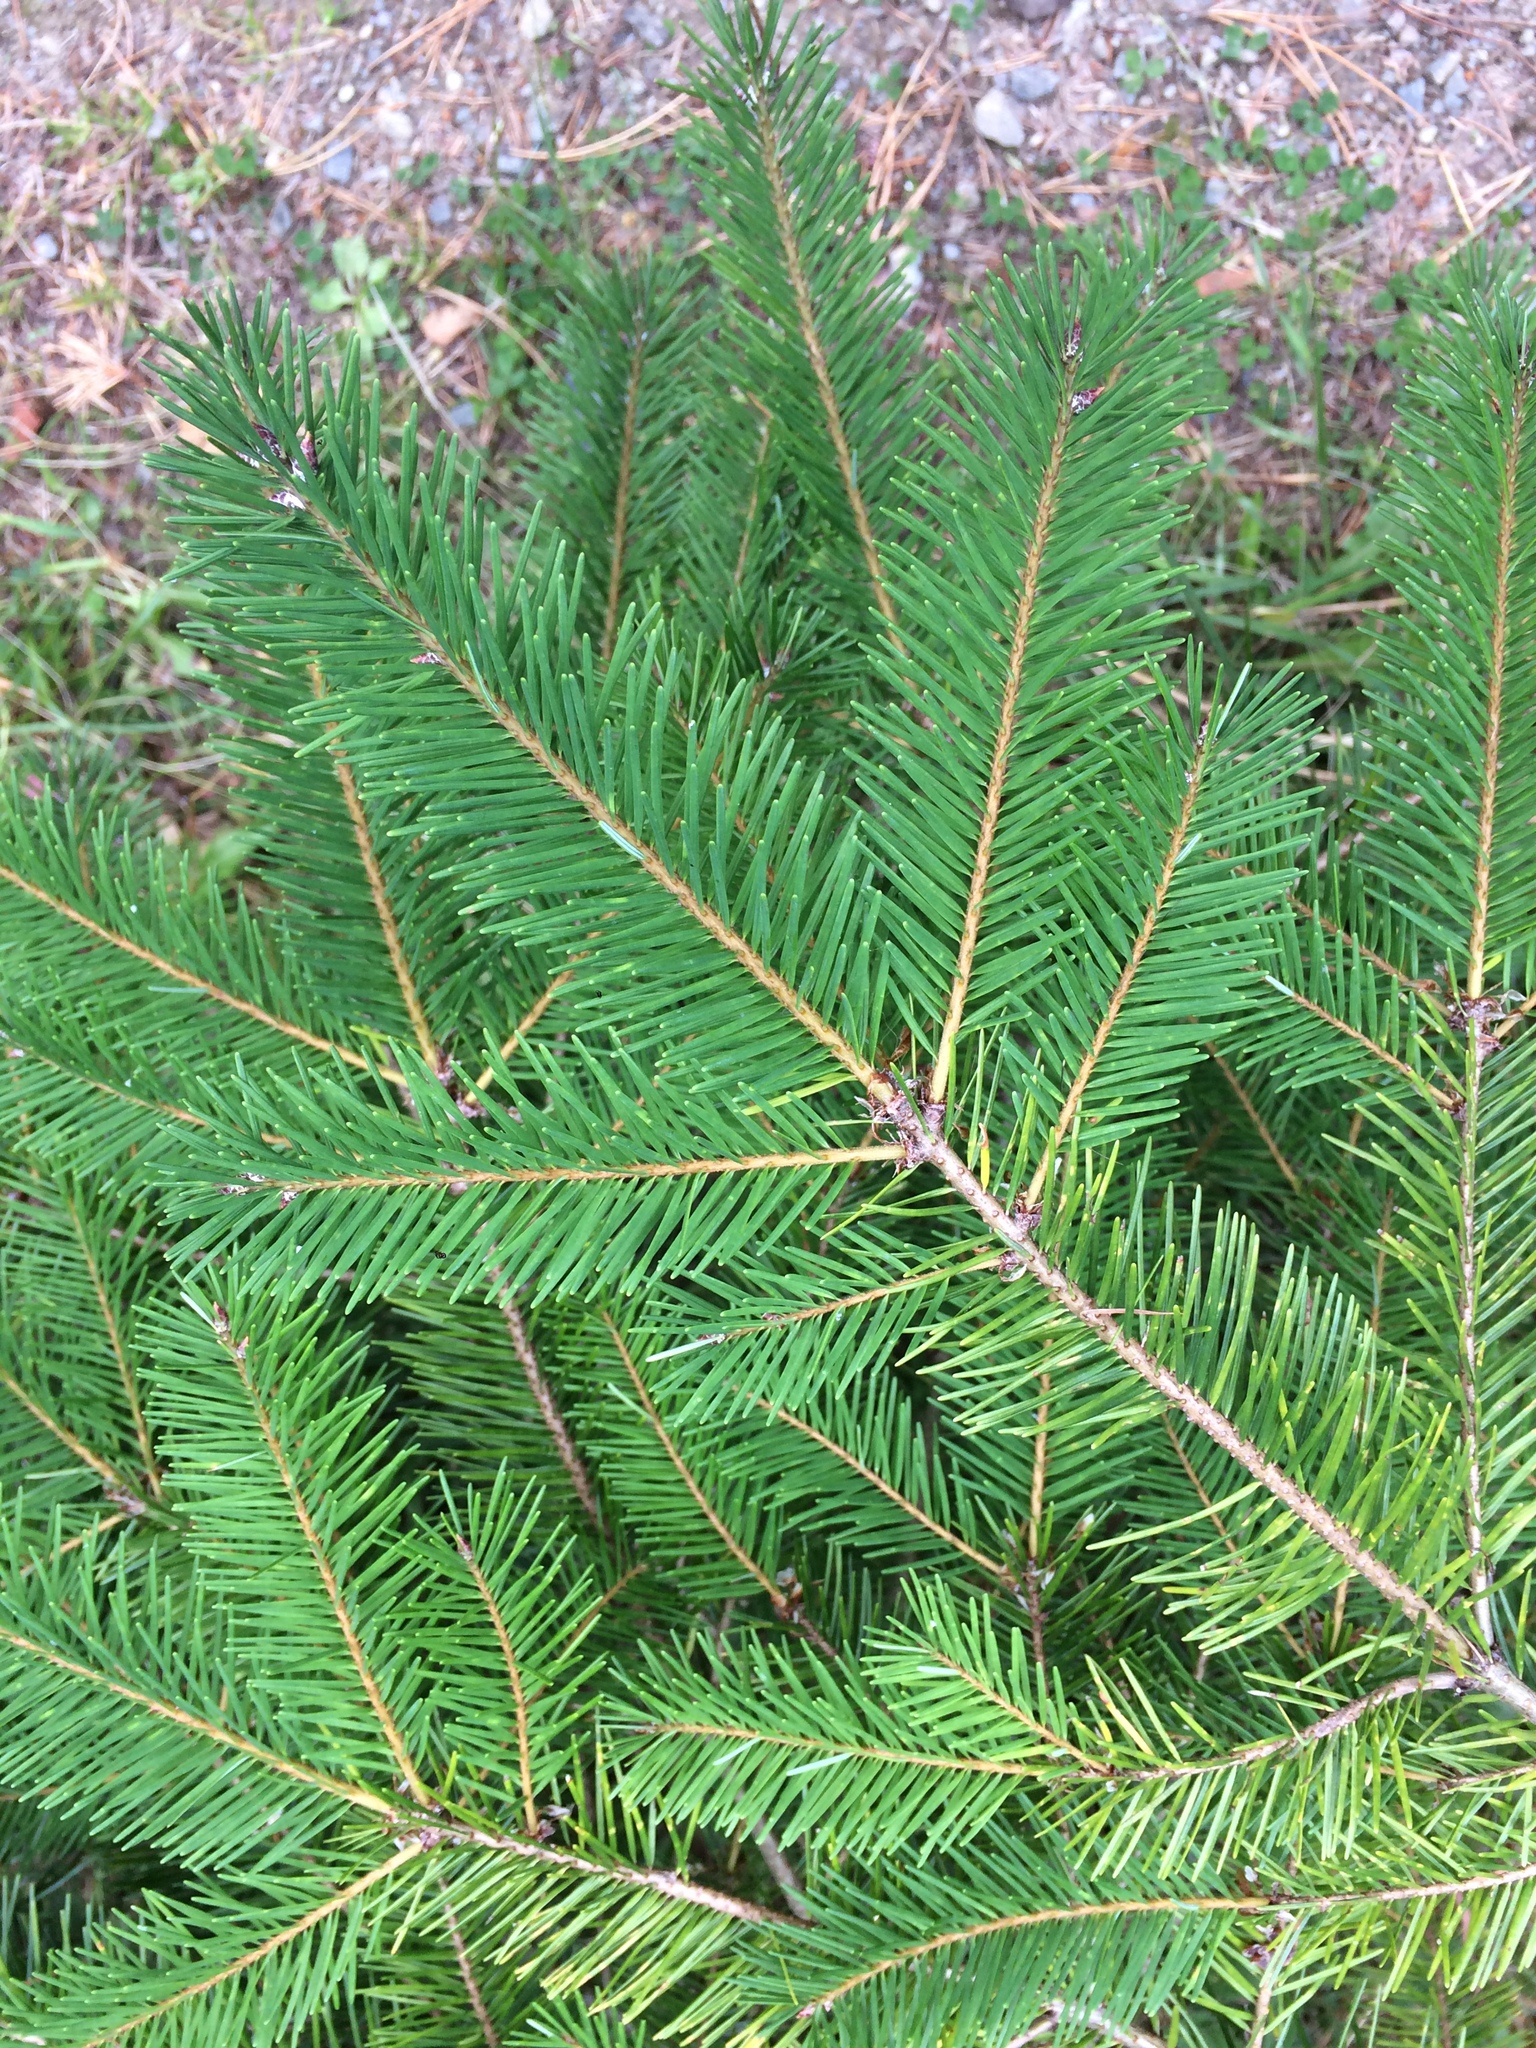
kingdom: Plantae
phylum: Tracheophyta
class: Pinopsida
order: Pinales
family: Pinaceae
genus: Pseudotsuga
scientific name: Pseudotsuga menziesii
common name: Douglas fir
